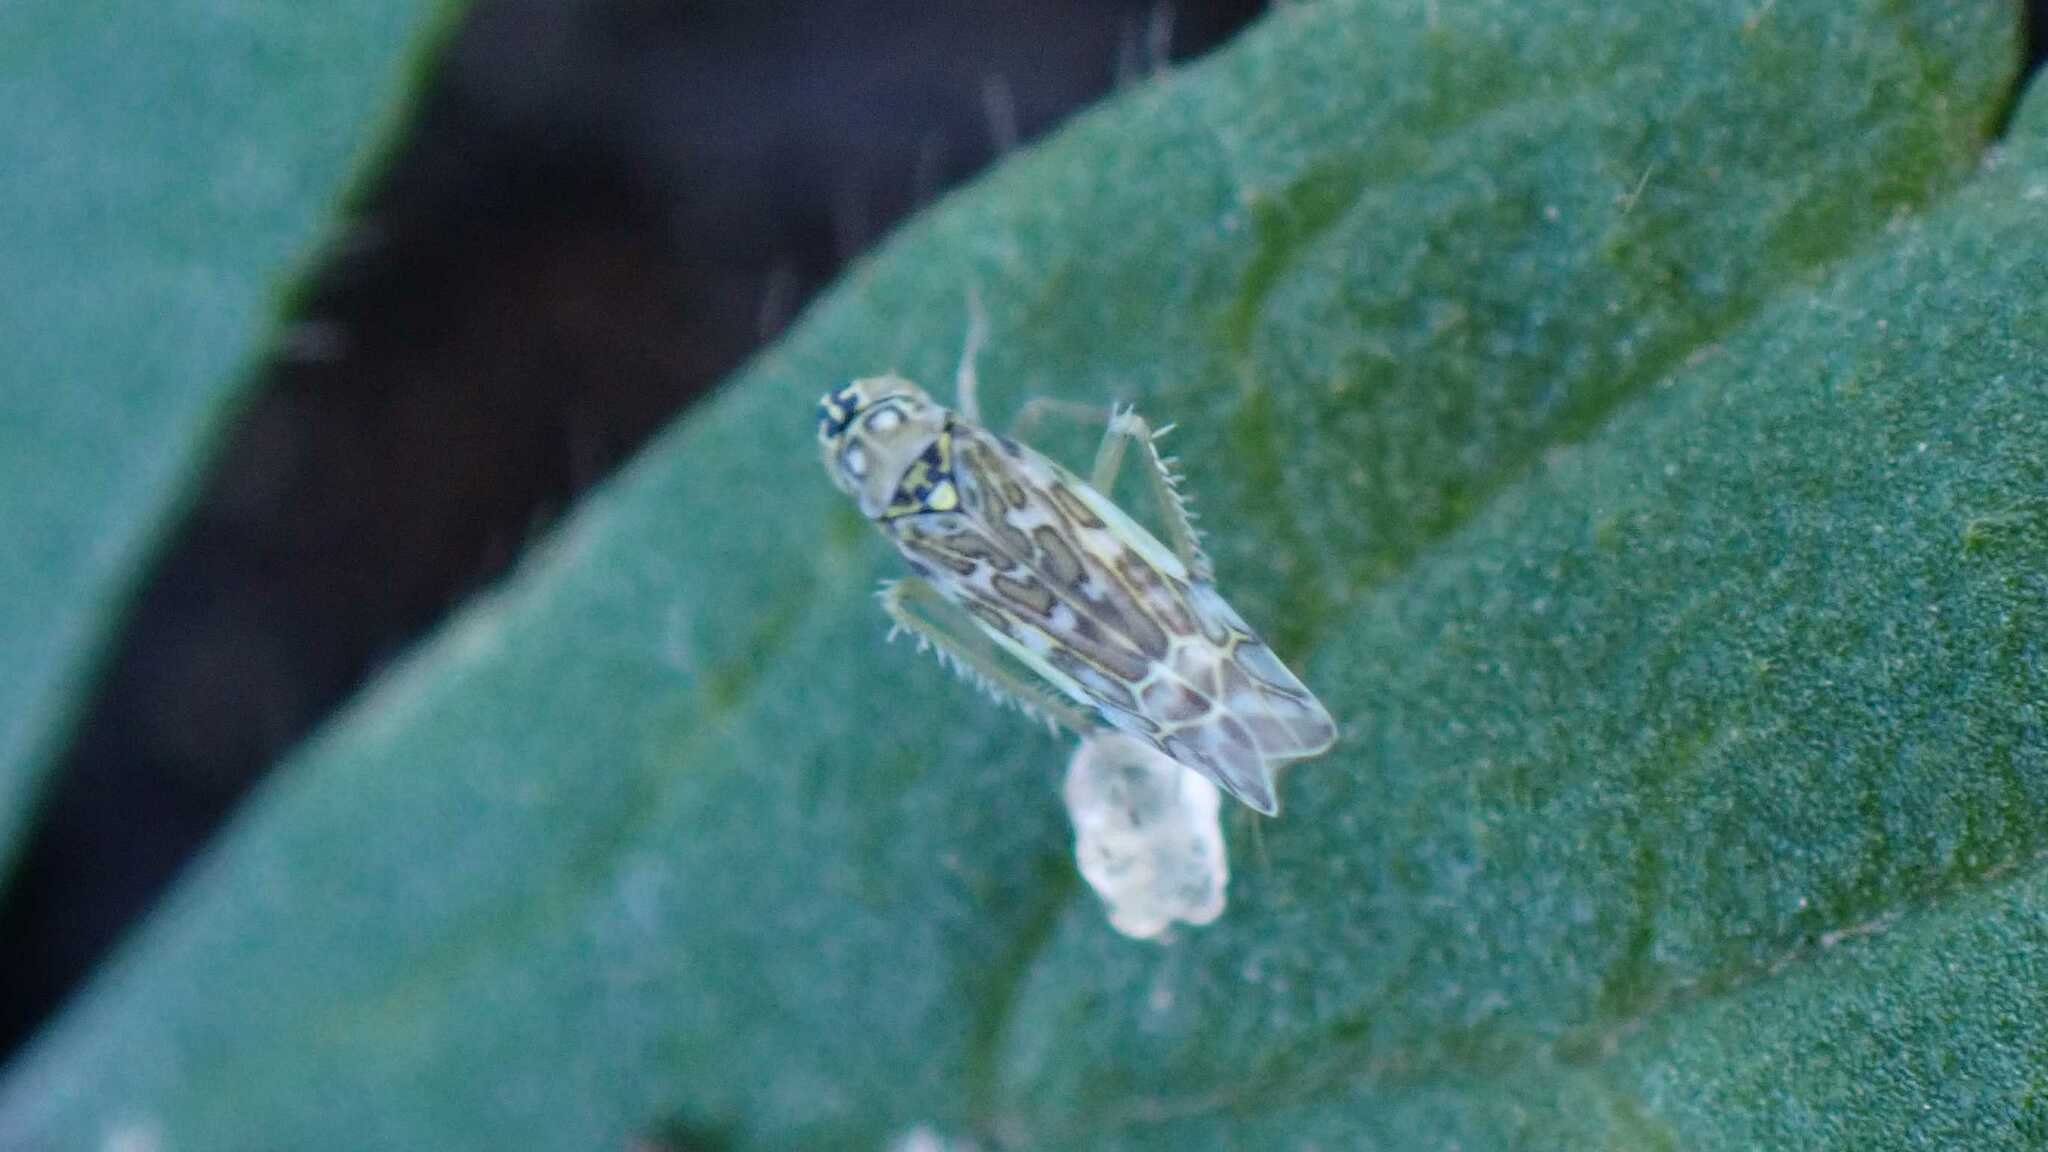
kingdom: Animalia
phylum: Arthropoda
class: Insecta
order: Hemiptera
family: Cicadellidae
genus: Eupteryx
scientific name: Eupteryx decemnotata
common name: Ligurian leafhopper
